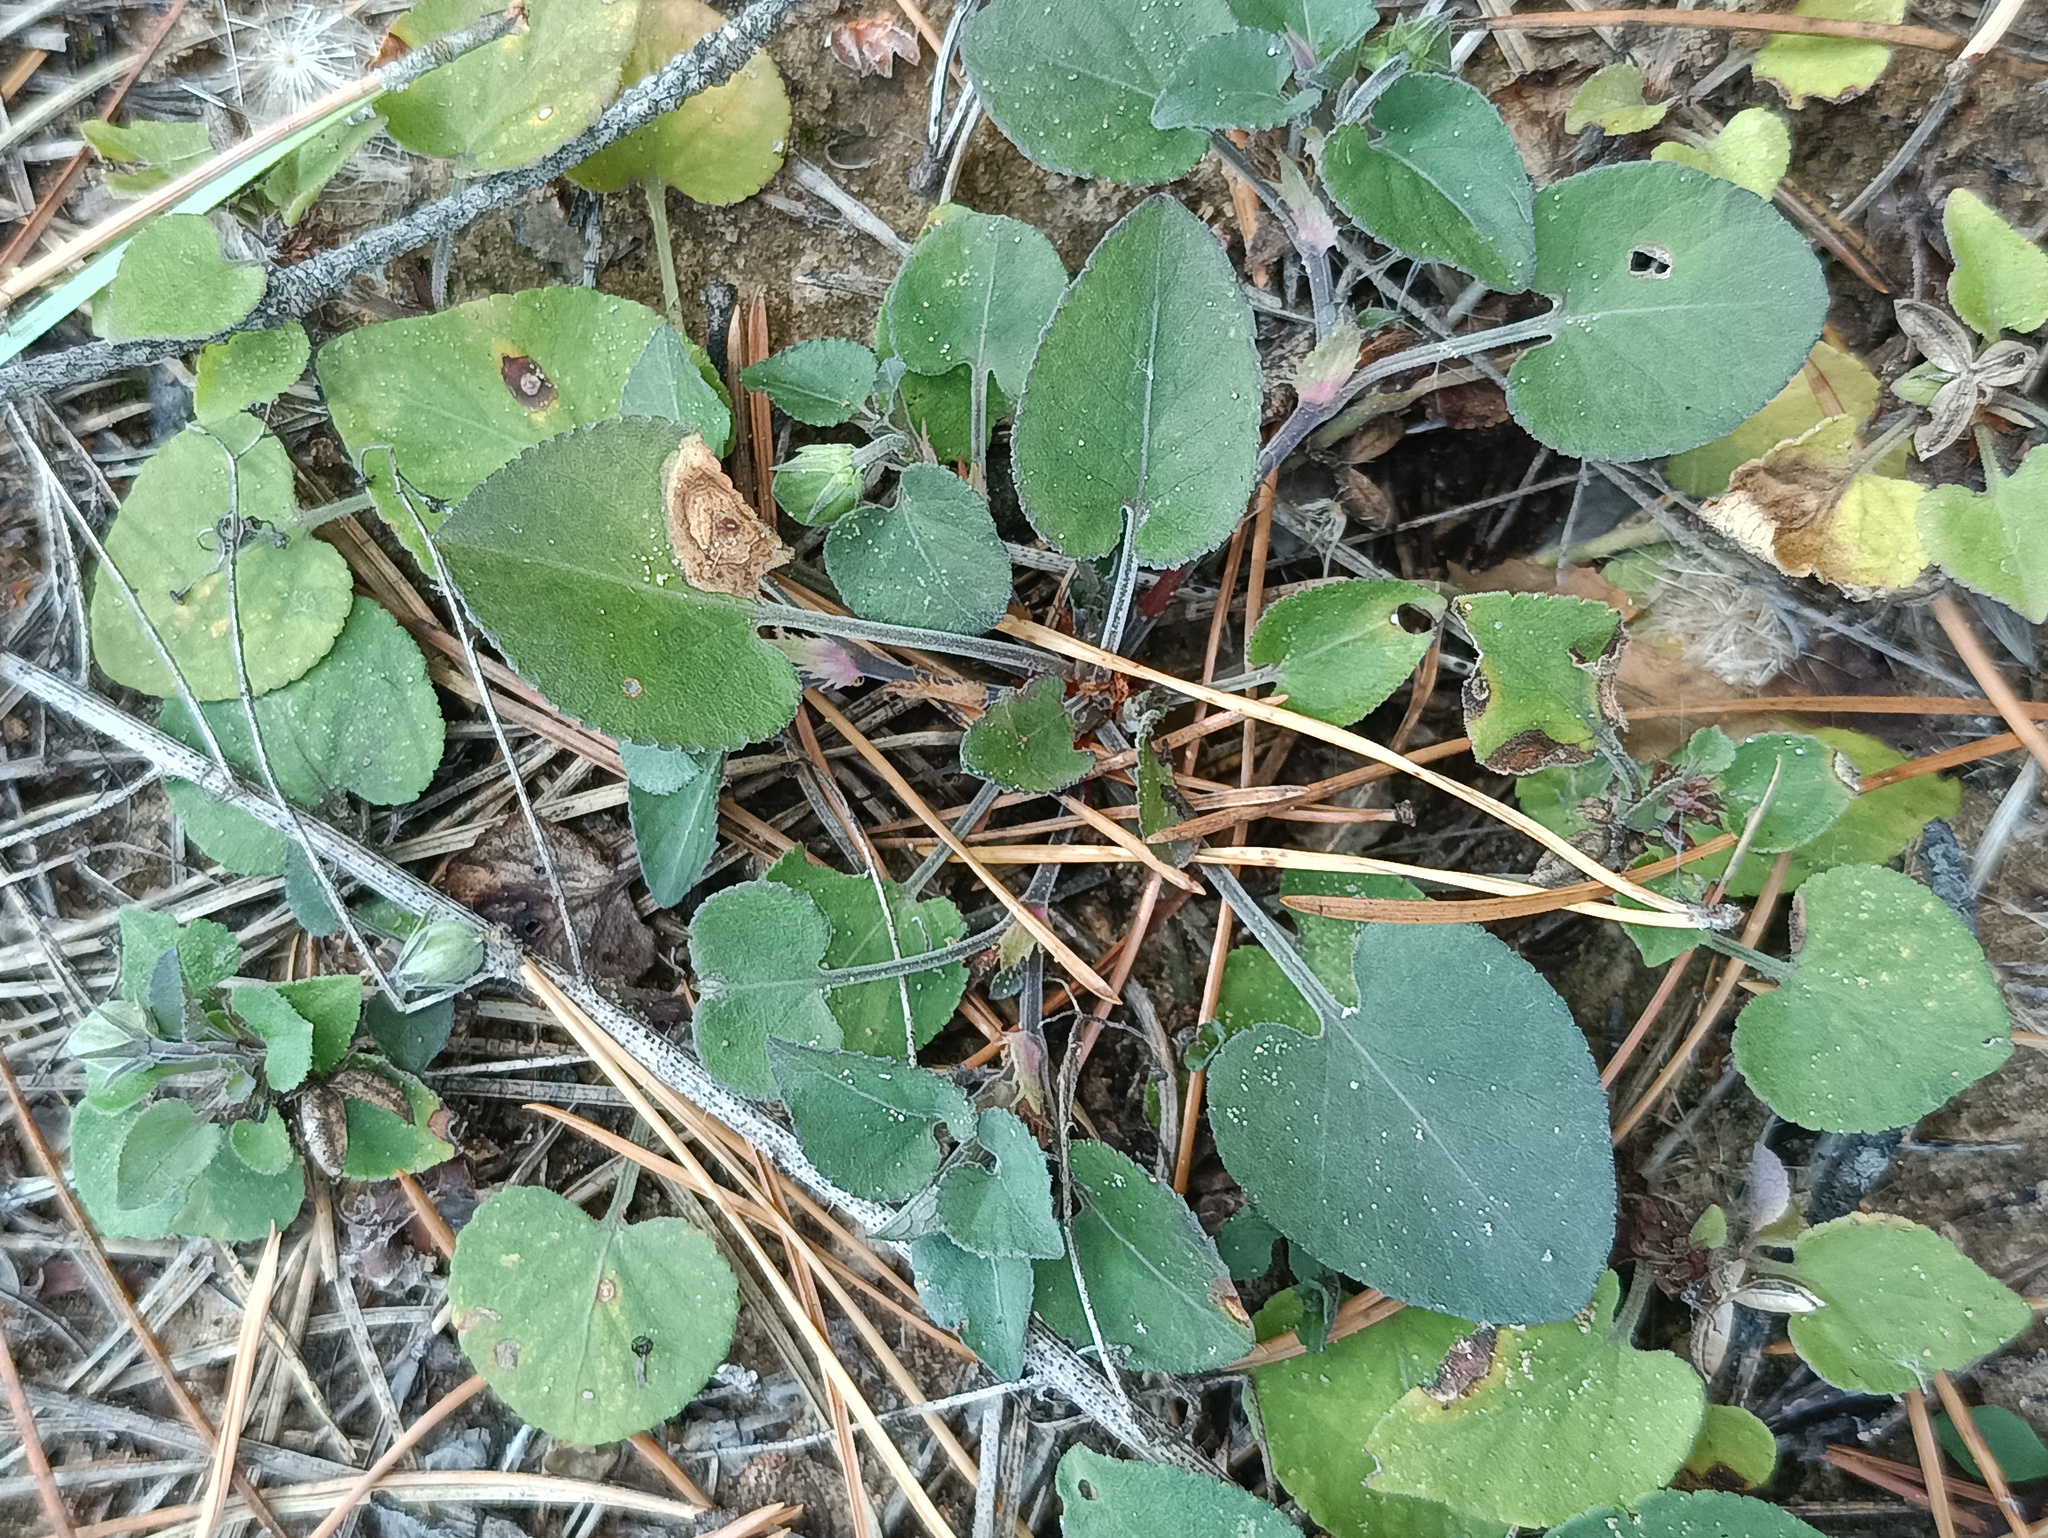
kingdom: Plantae
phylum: Tracheophyta
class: Magnoliopsida
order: Malpighiales
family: Violaceae
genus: Viola
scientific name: Viola rupestris
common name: Teesdale violet
